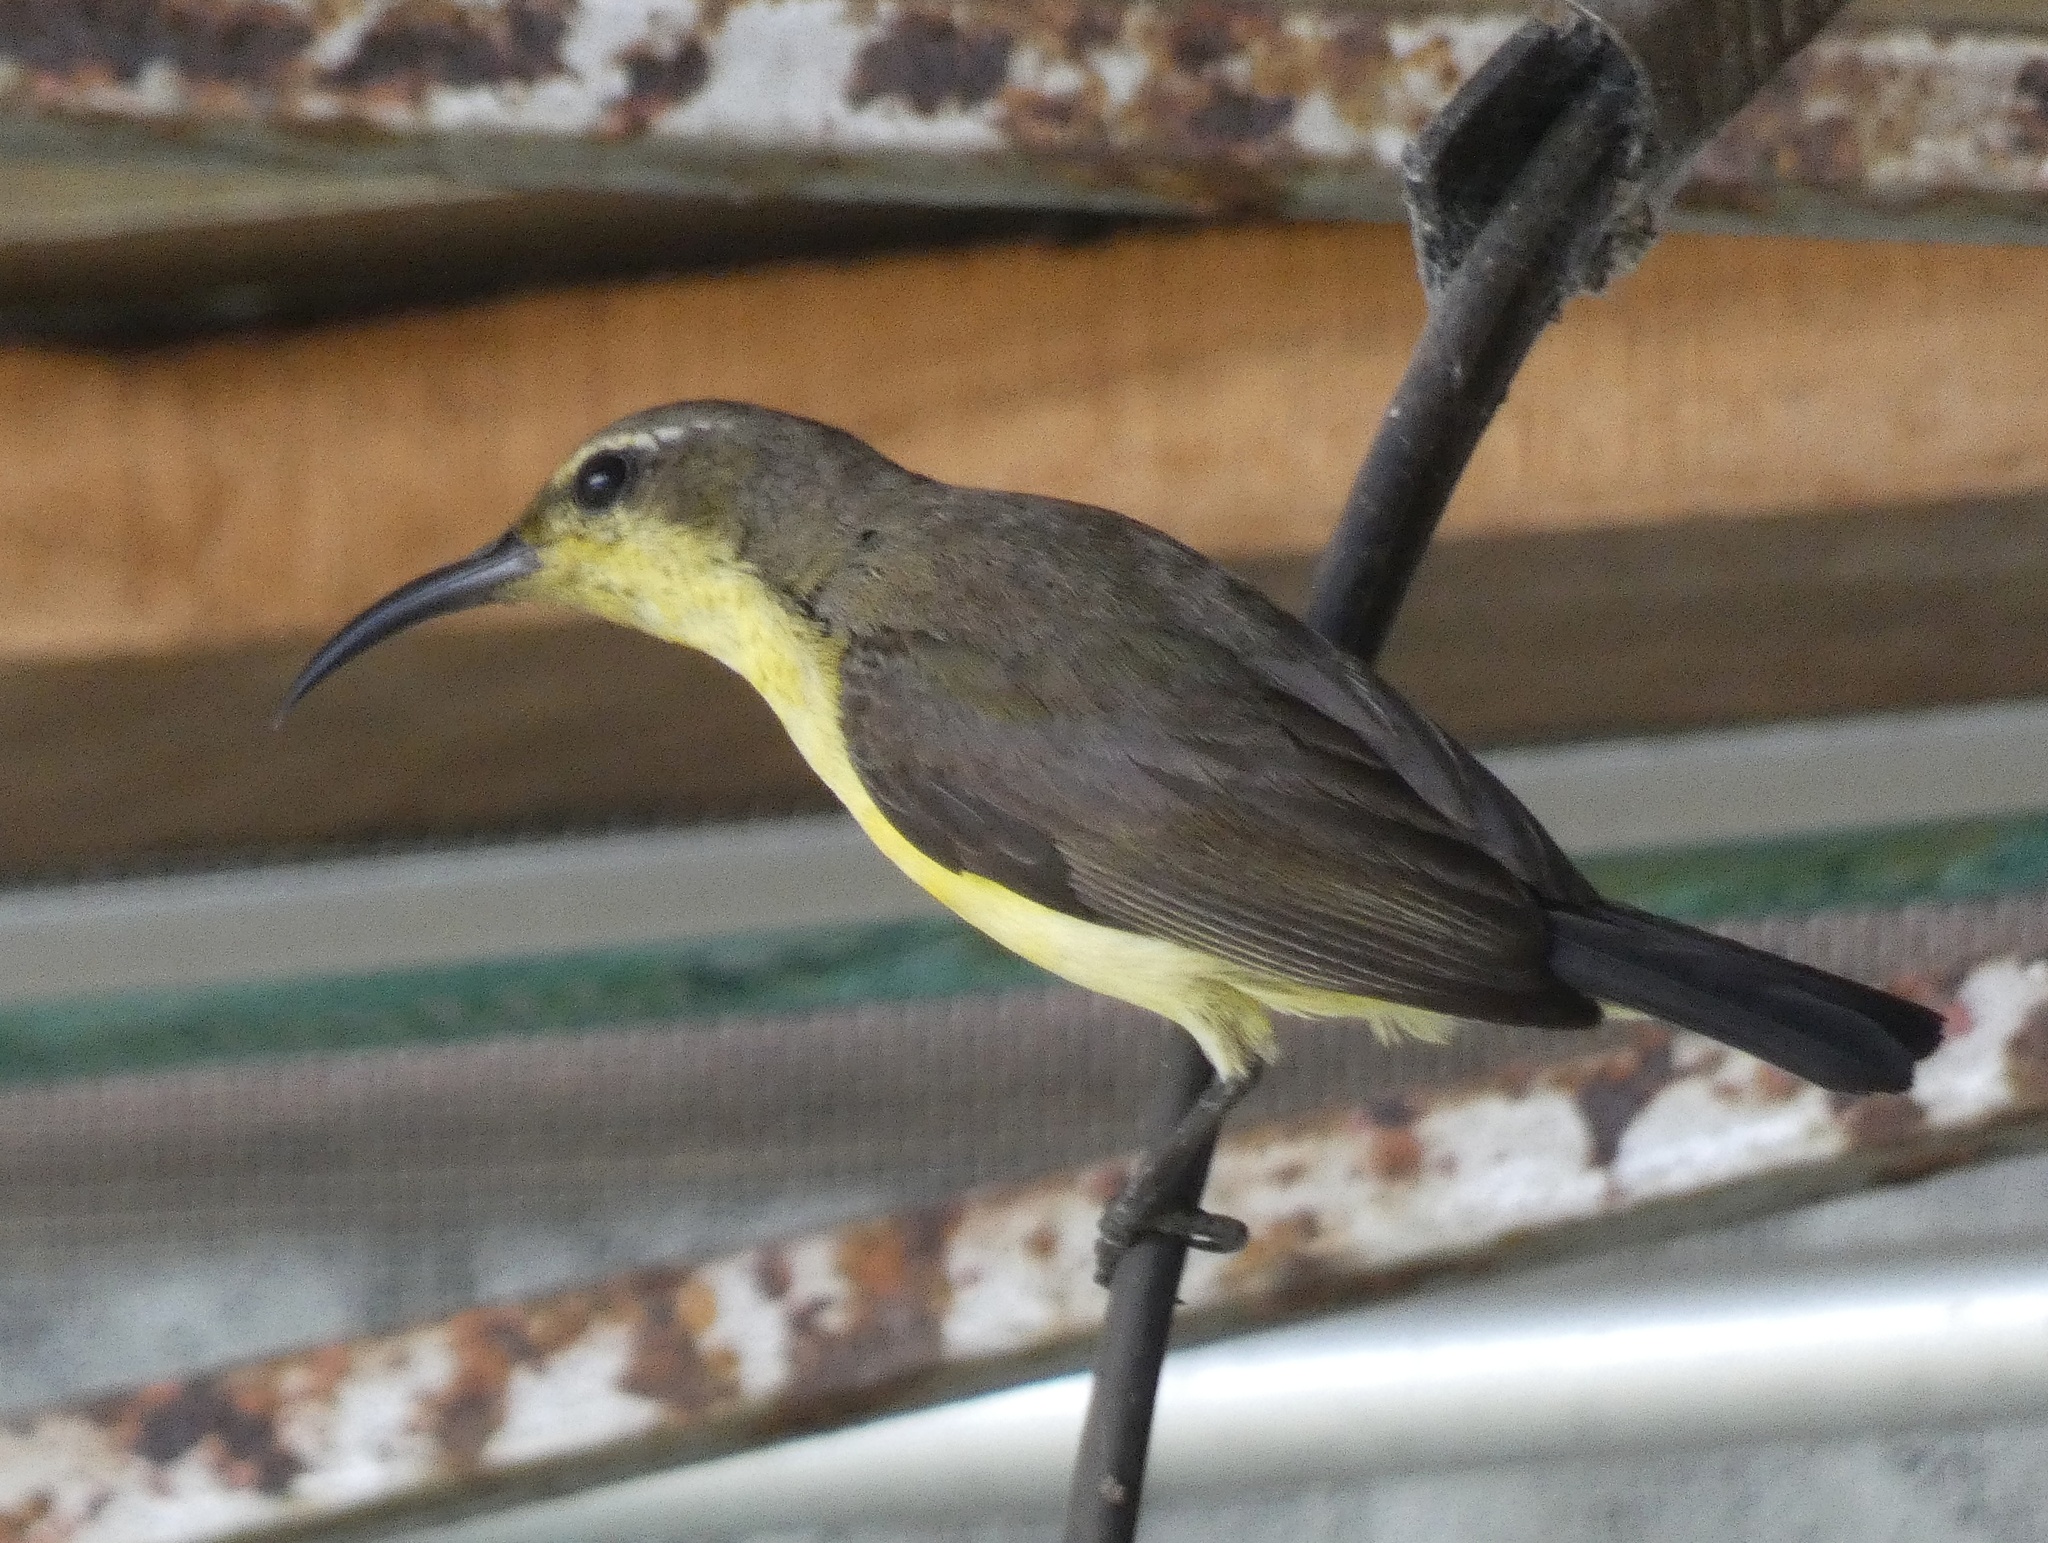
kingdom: Animalia
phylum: Chordata
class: Aves
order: Passeriformes
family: Nectariniidae
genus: Cinnyris
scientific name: Cinnyris jugularis
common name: Olive-backed sunbird
